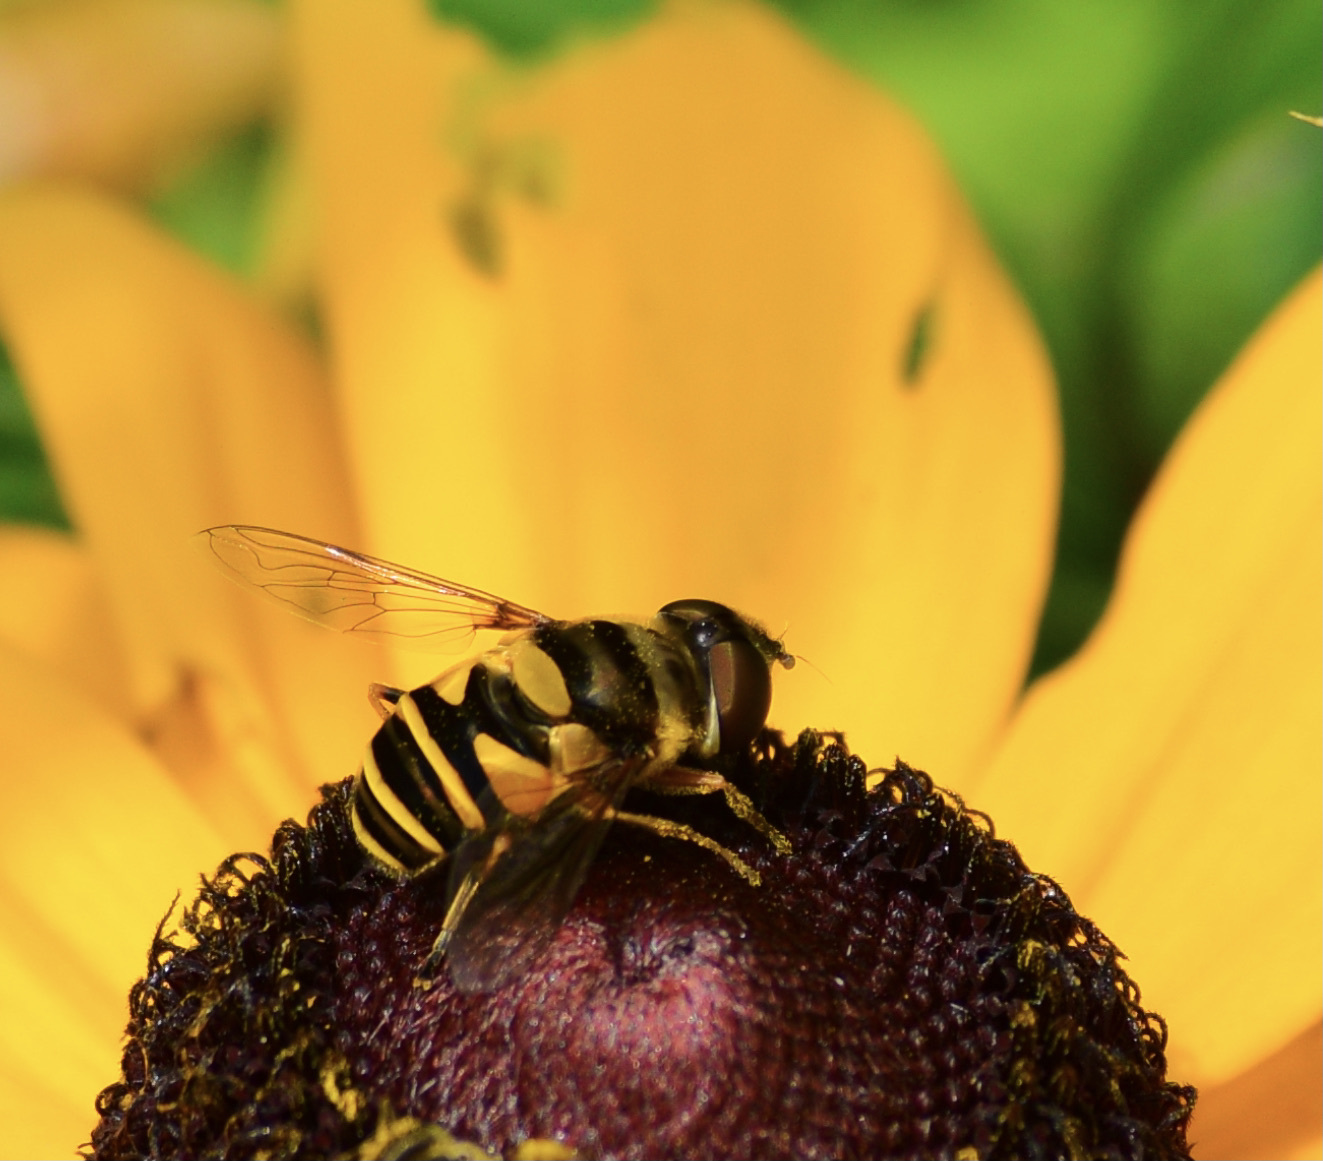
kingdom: Animalia
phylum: Arthropoda
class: Insecta
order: Diptera
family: Syrphidae
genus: Eristalis
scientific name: Eristalis transversa
